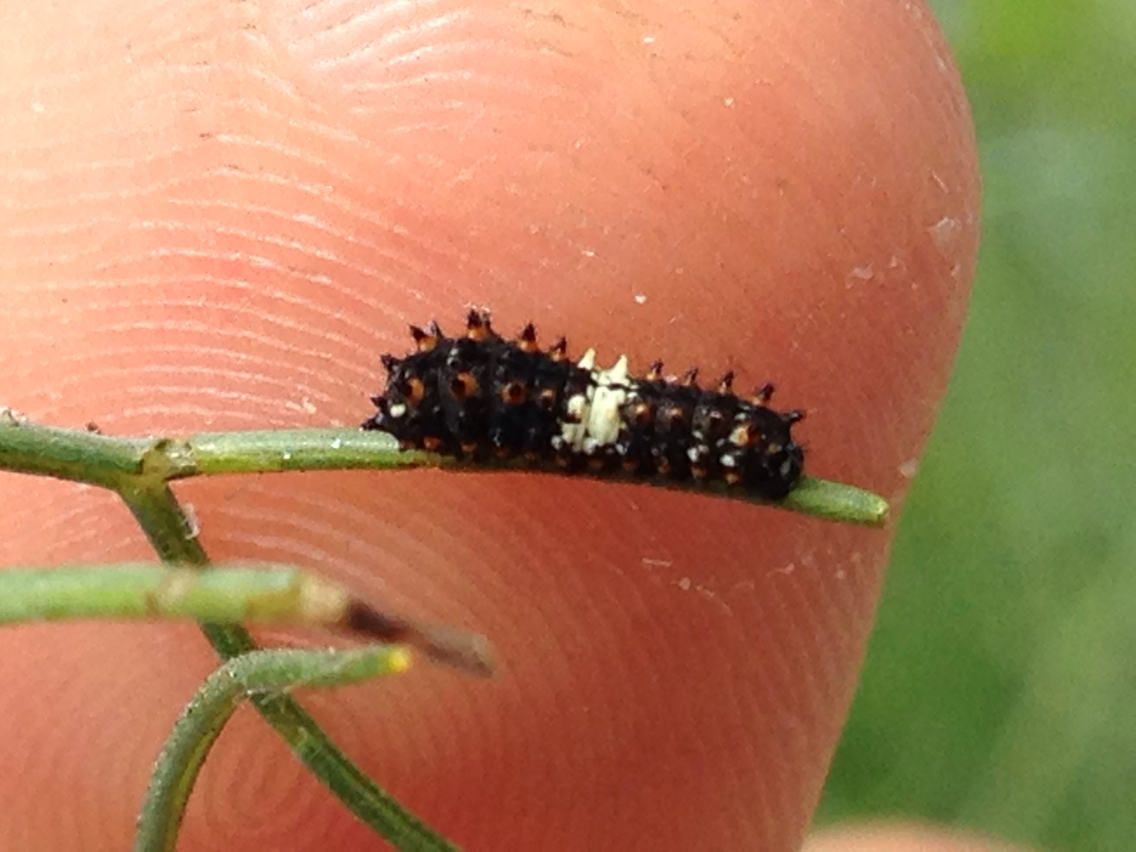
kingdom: Animalia
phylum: Arthropoda
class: Insecta
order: Lepidoptera
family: Papilionidae
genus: Papilio
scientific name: Papilio zelicaon
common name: Anise swallowtail
